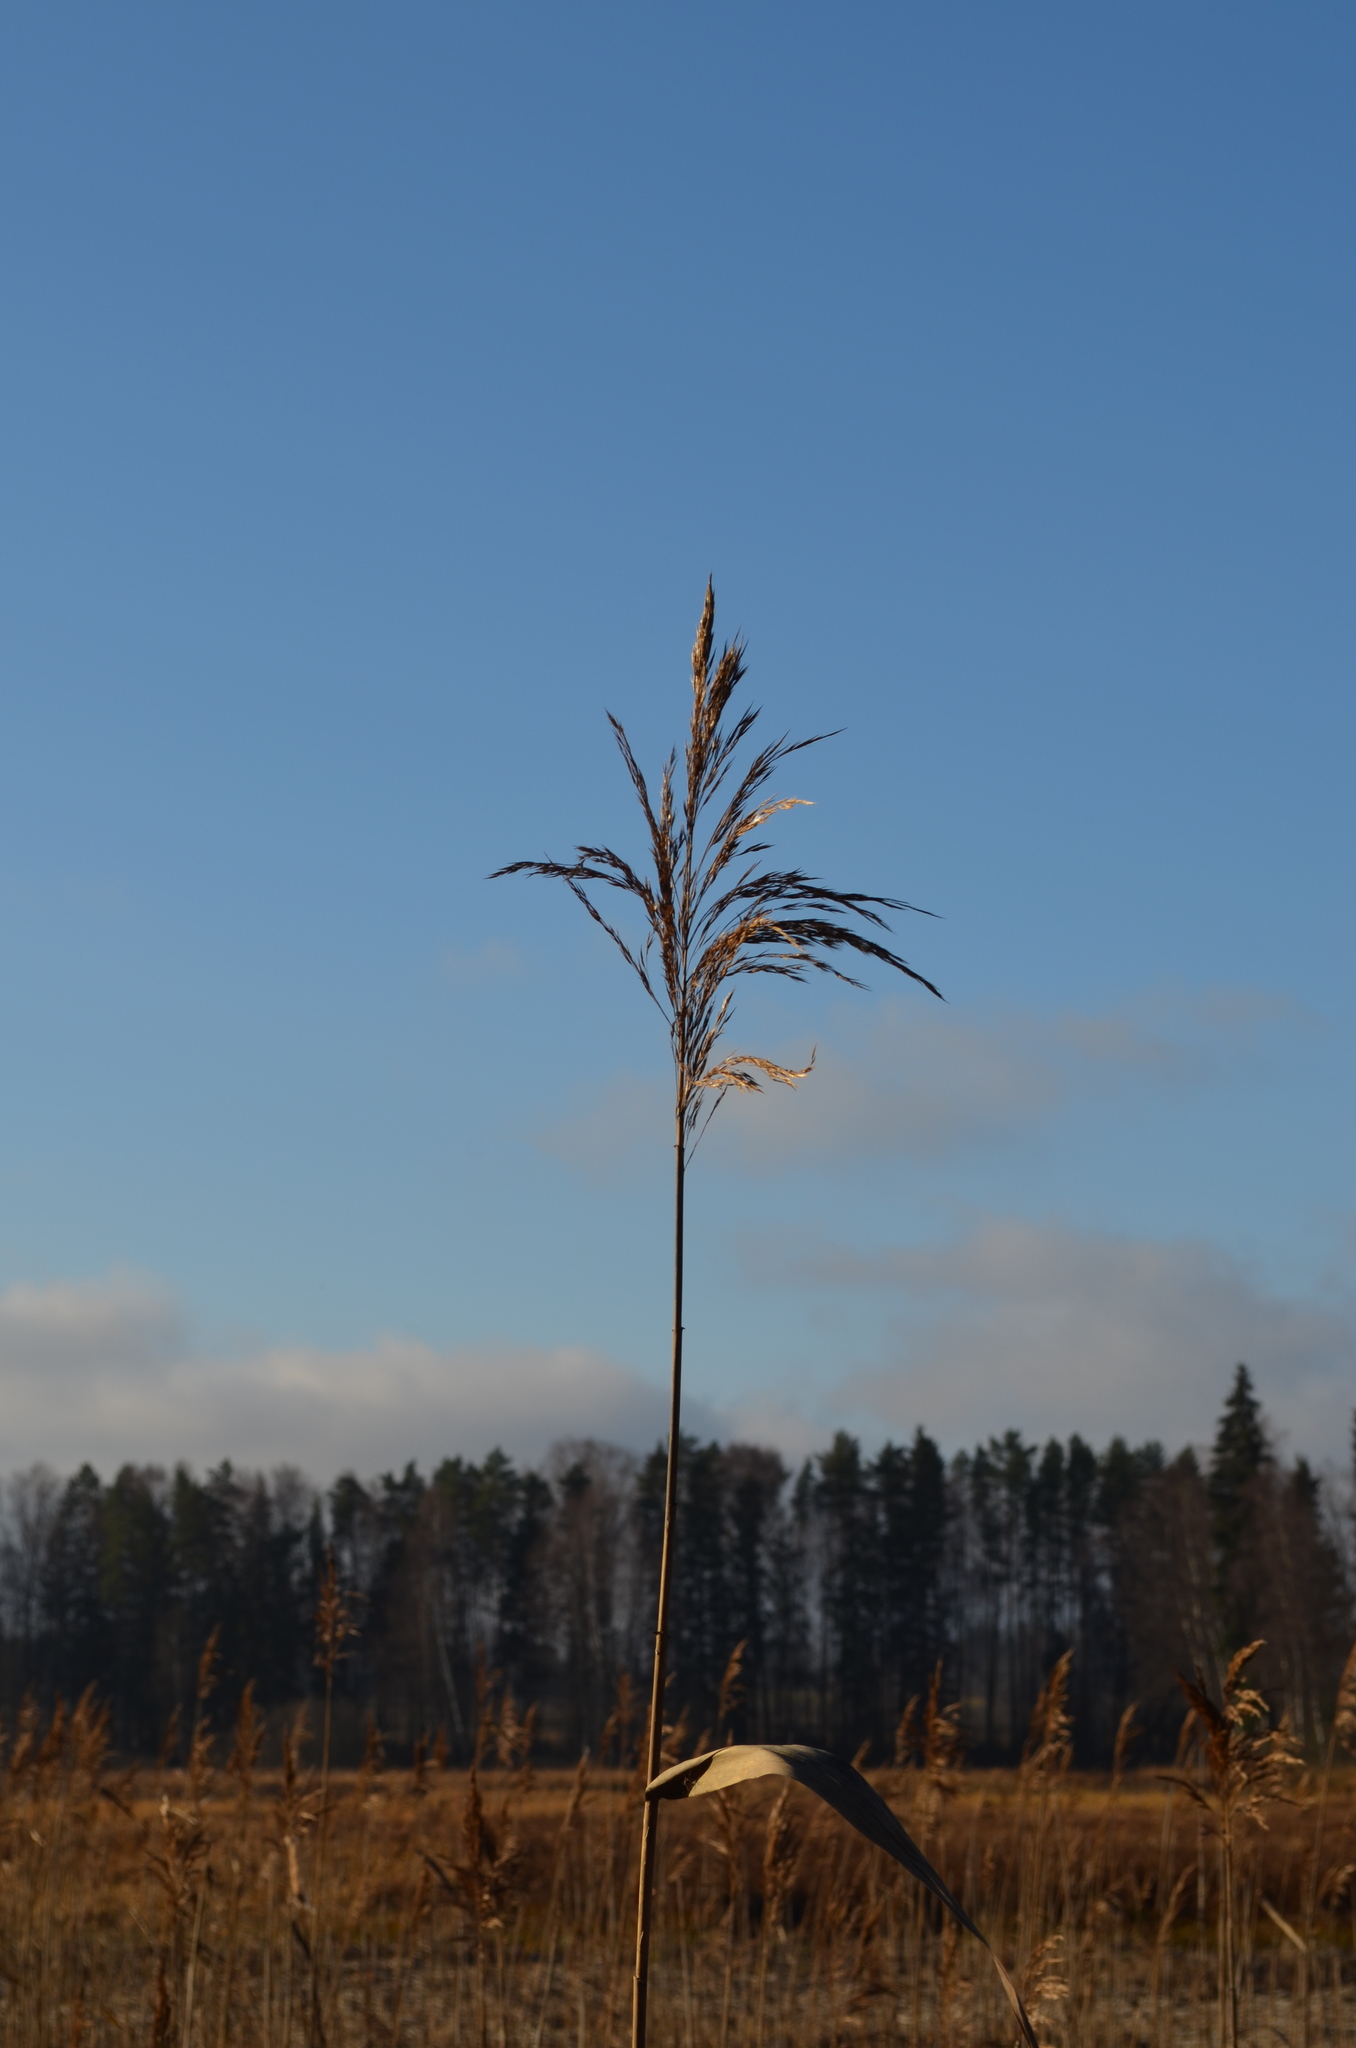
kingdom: Plantae
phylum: Tracheophyta
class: Liliopsida
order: Poales
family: Poaceae
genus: Phragmites
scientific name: Phragmites australis
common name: Common reed
